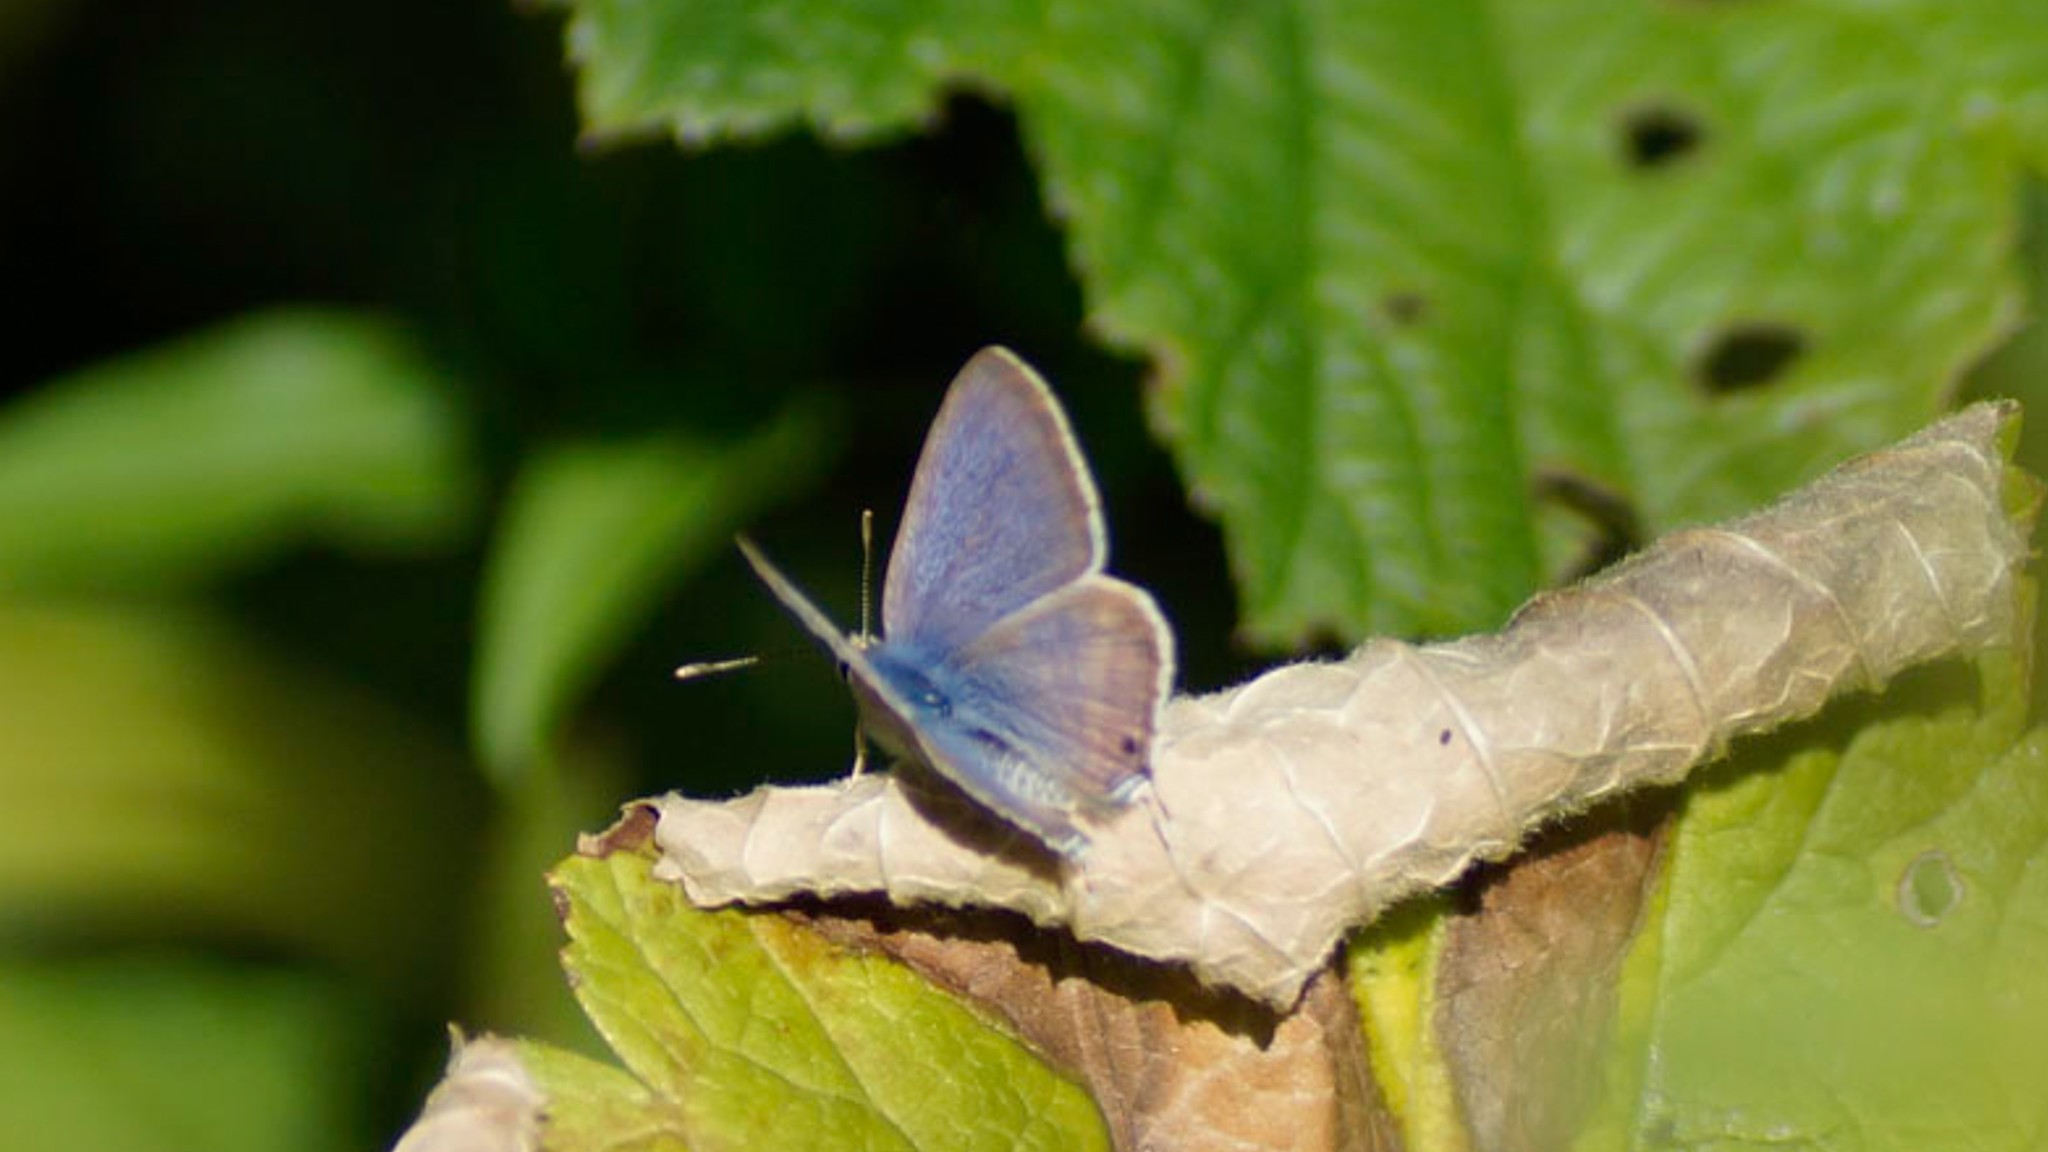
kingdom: Animalia
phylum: Arthropoda
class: Insecta
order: Lepidoptera
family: Lycaenidae
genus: Lampides
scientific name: Lampides boeticus
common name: Long-tailed blue
